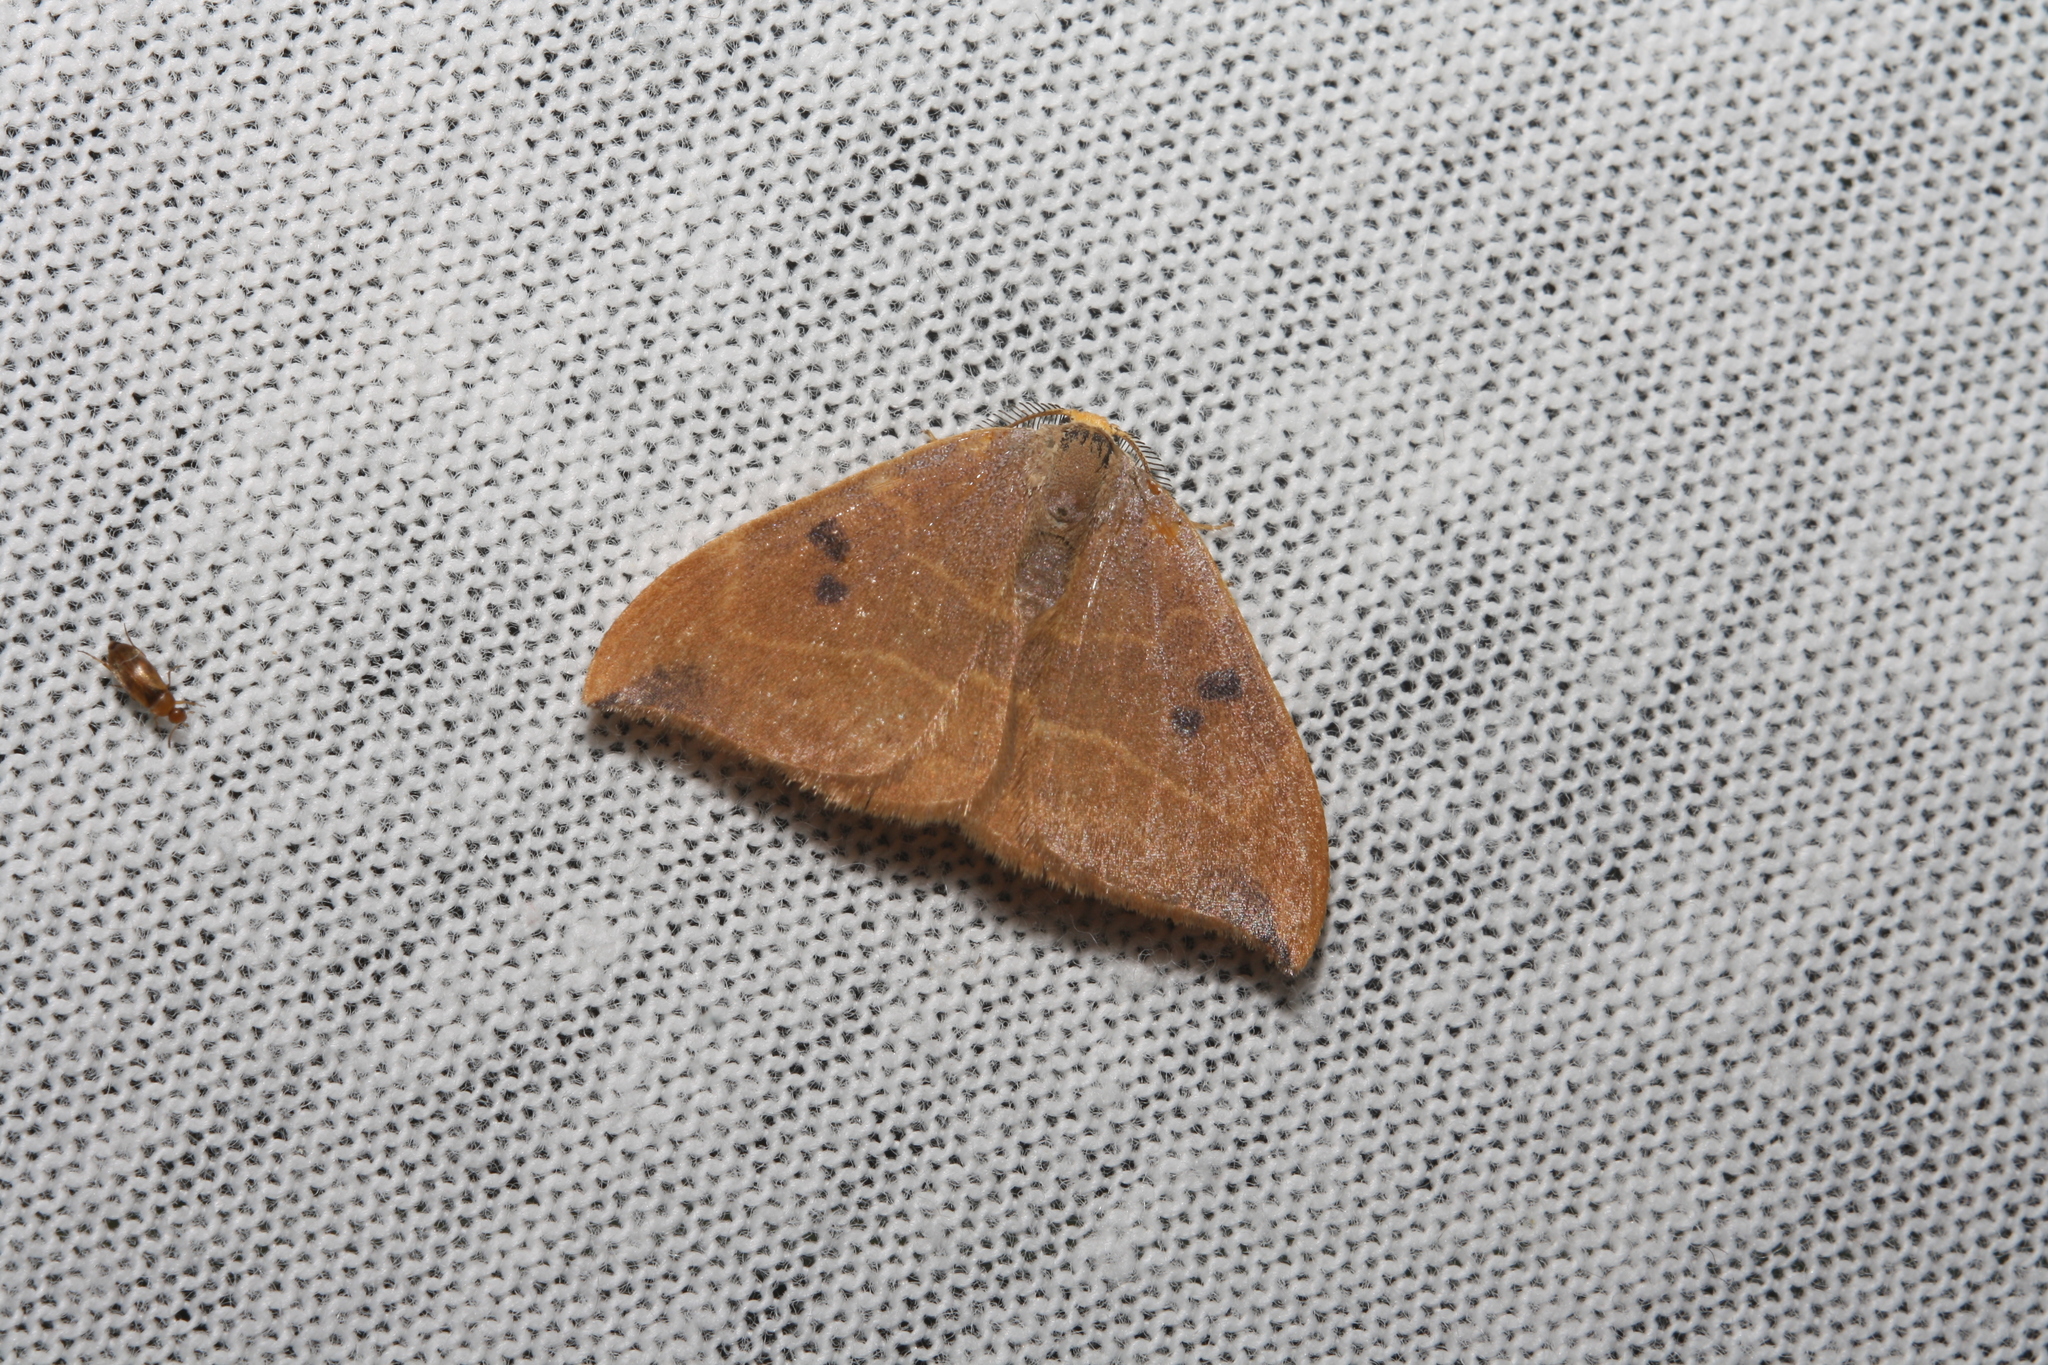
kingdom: Animalia
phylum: Arthropoda
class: Insecta
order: Lepidoptera
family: Drepanidae
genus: Watsonalla
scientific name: Watsonalla binaria
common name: Oak hook-tip
